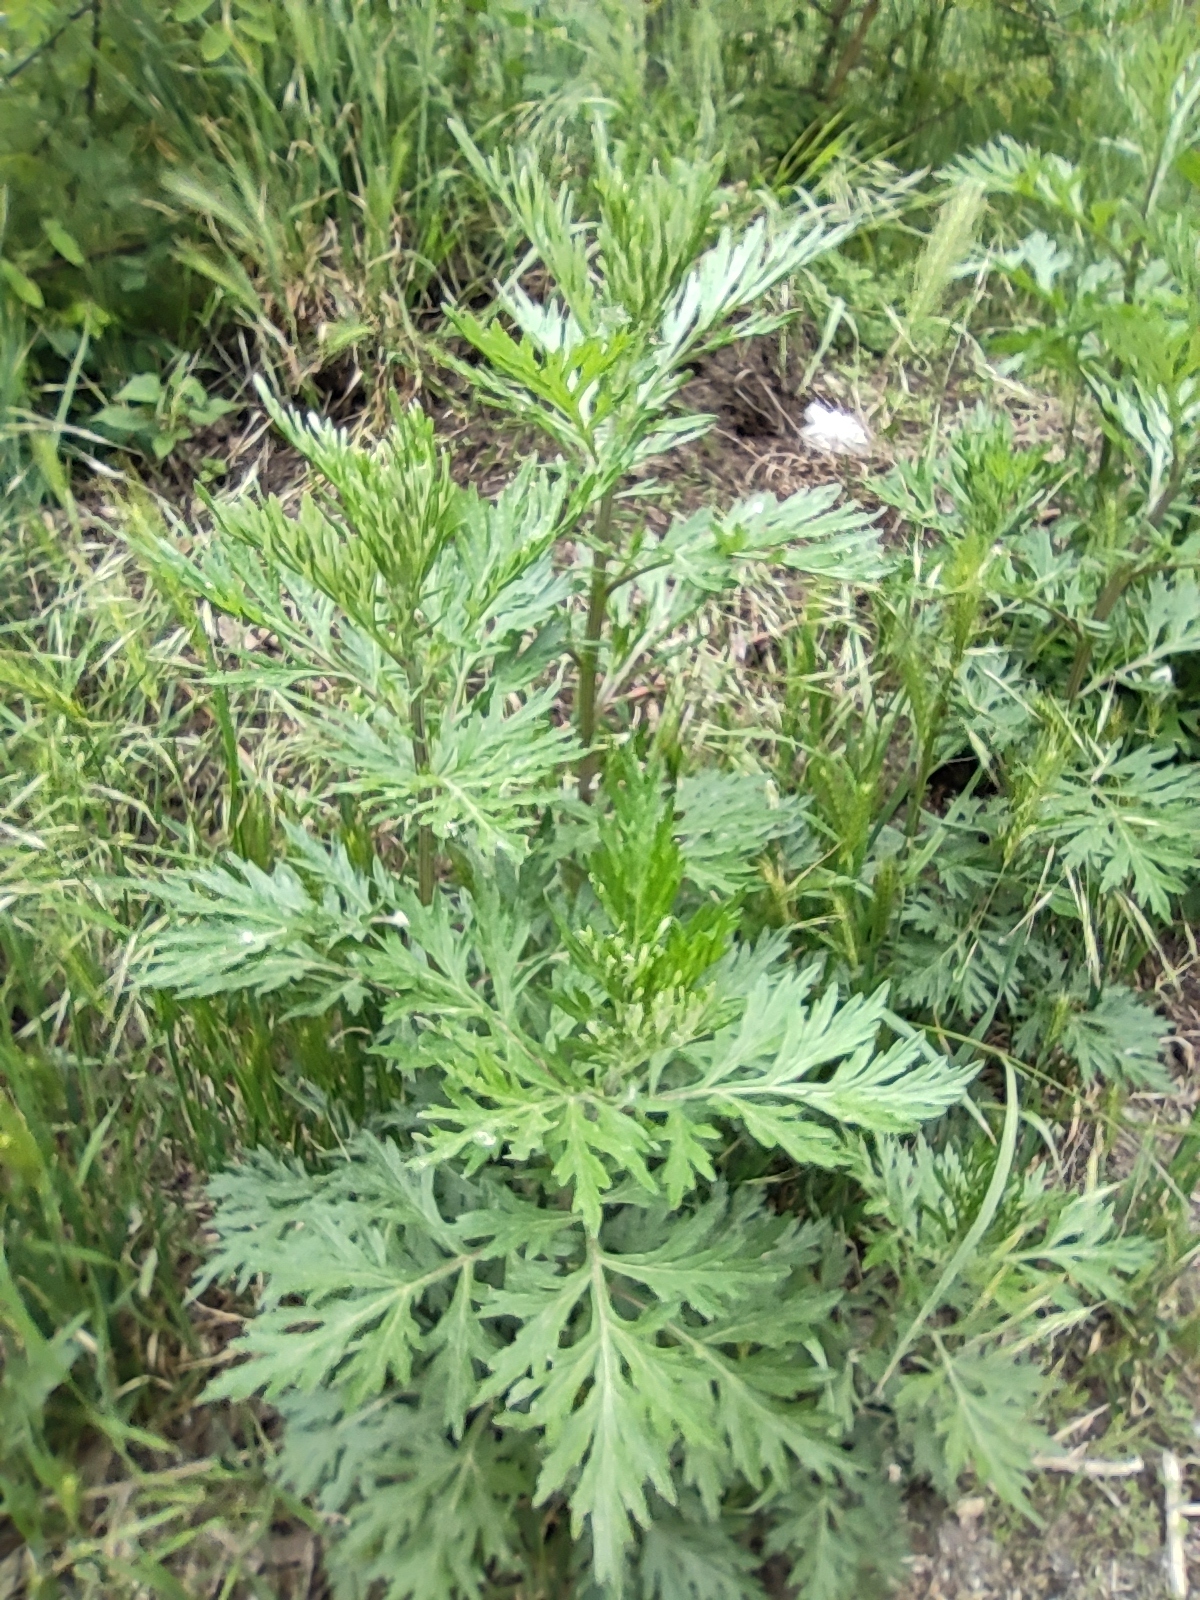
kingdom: Plantae
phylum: Tracheophyta
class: Magnoliopsida
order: Asterales
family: Asteraceae
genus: Artemisia
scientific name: Artemisia vulgaris
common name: Mugwort
